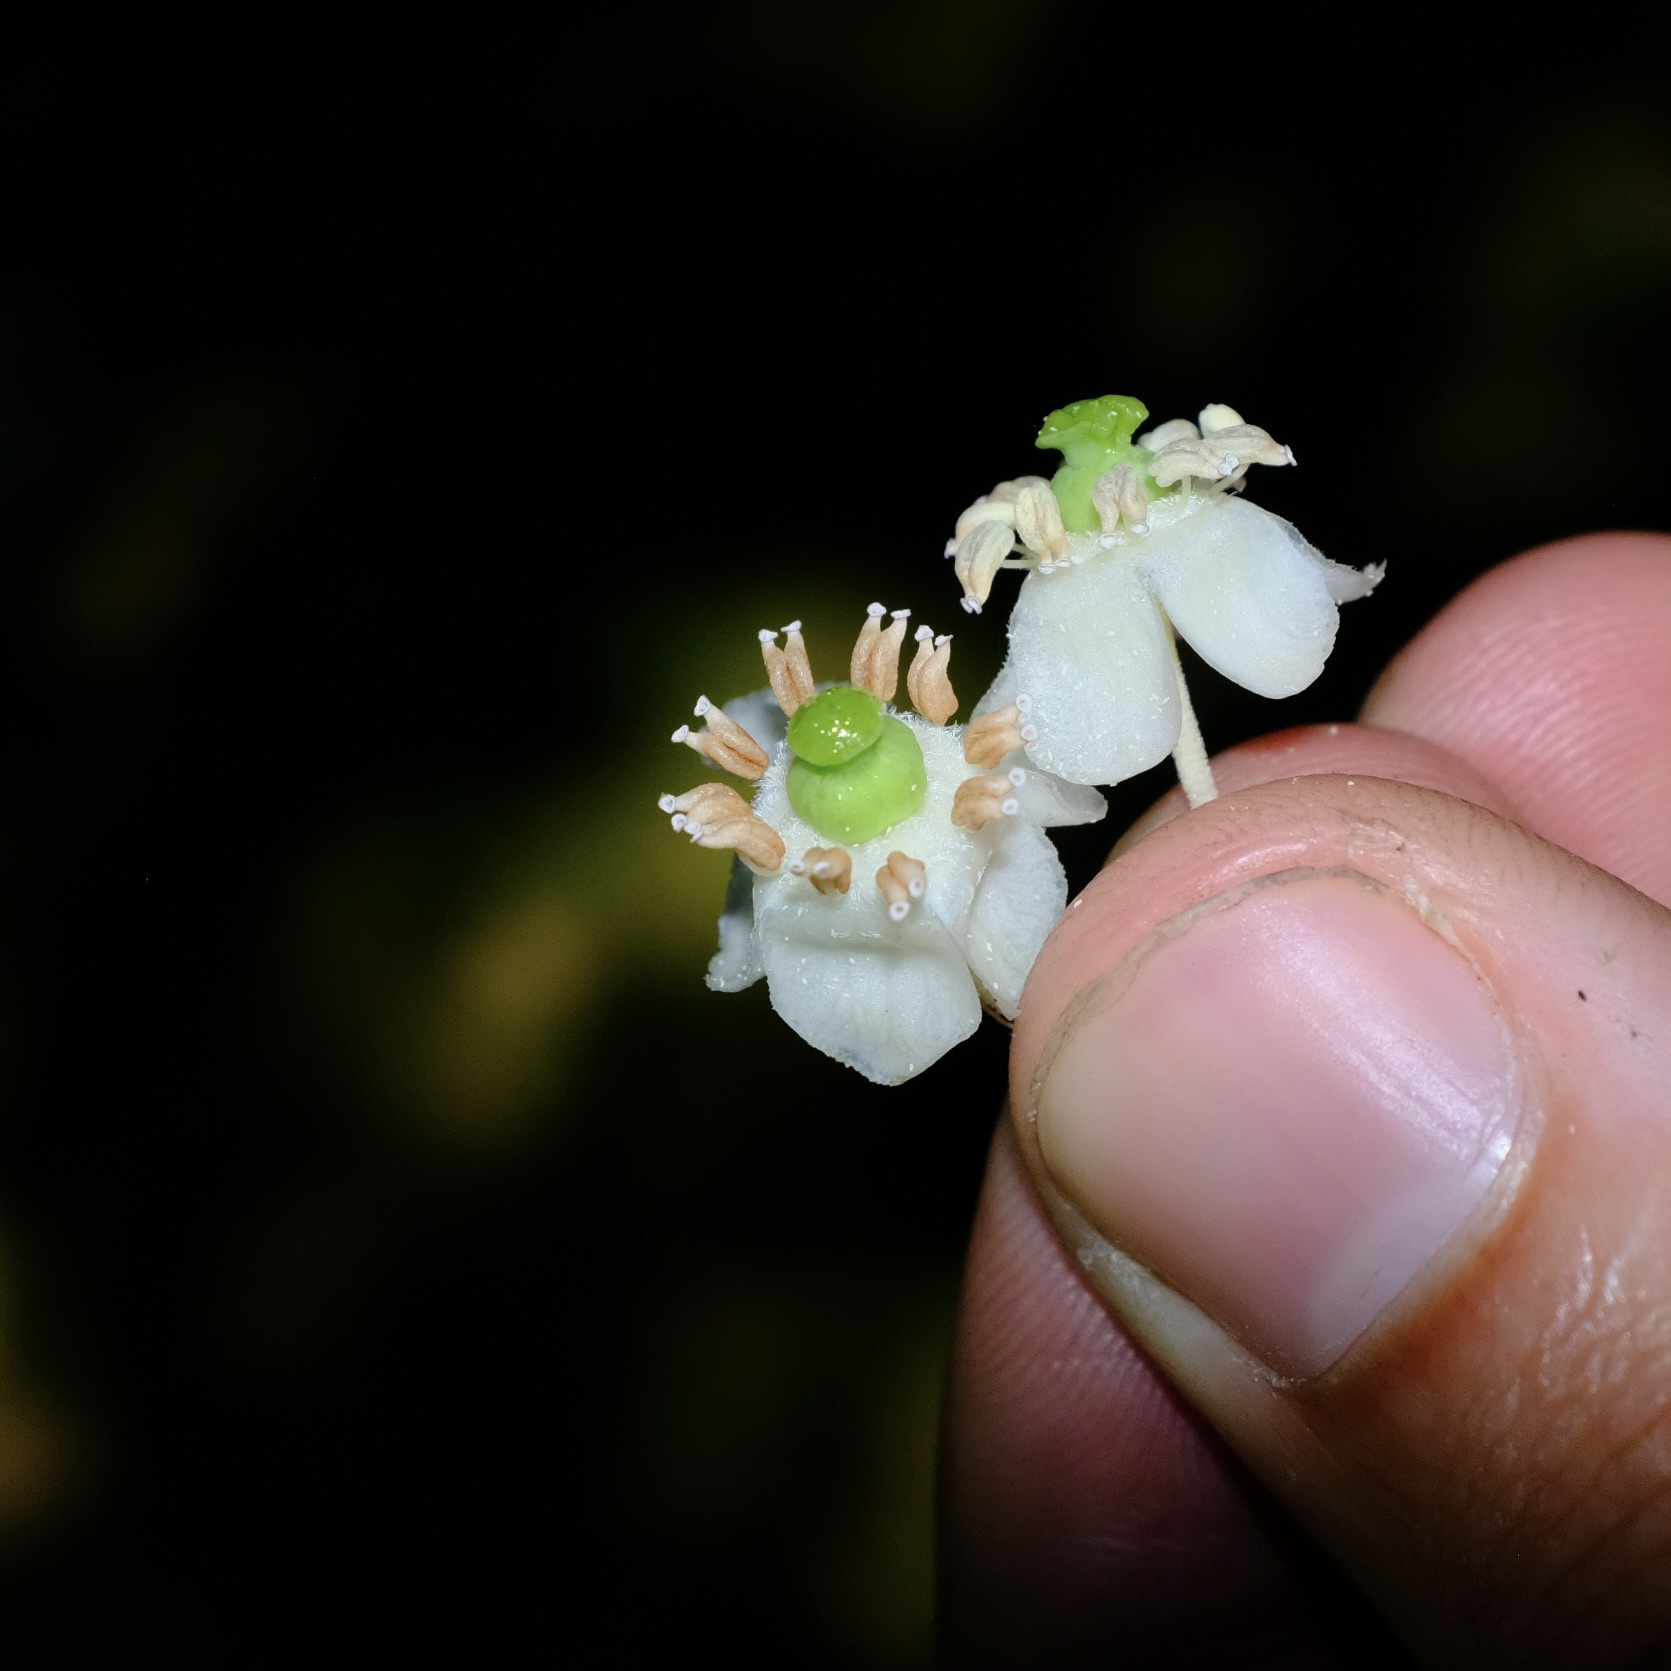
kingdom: Plantae
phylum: Tracheophyta
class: Magnoliopsida
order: Ericales
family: Ericaceae
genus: Chimaphila
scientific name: Chimaphila maculata
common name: Spotted pipsissewa
